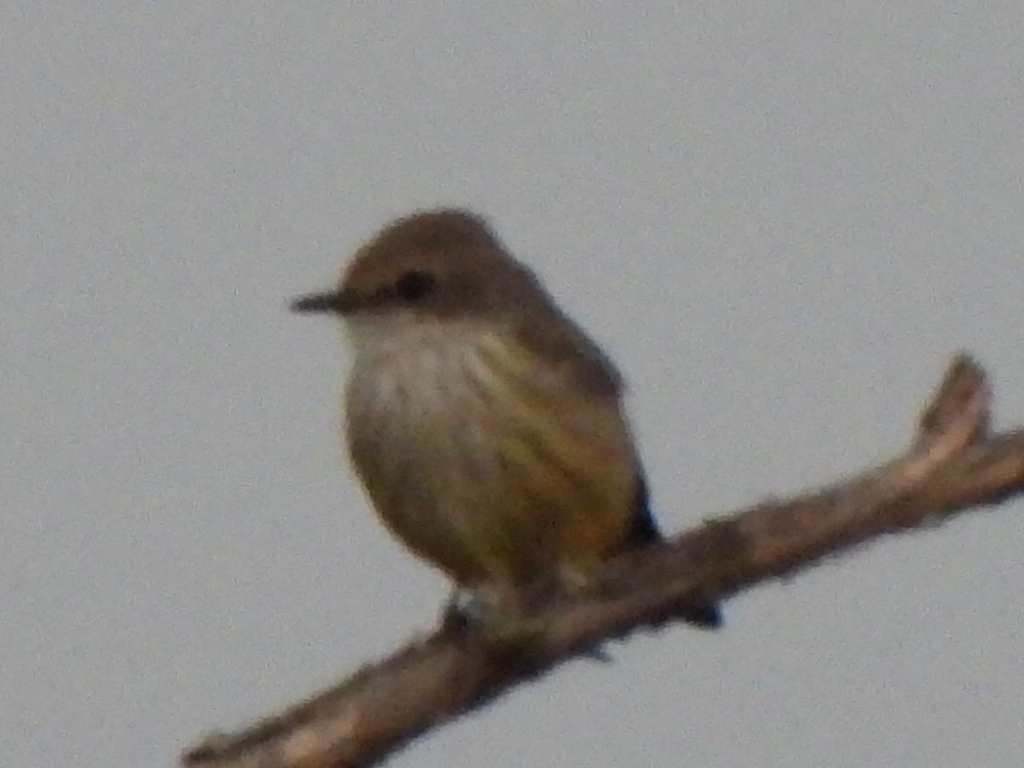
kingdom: Animalia
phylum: Chordata
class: Aves
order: Passeriformes
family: Tyrannidae
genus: Pyrocephalus
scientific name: Pyrocephalus rubinus
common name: Vermilion flycatcher
